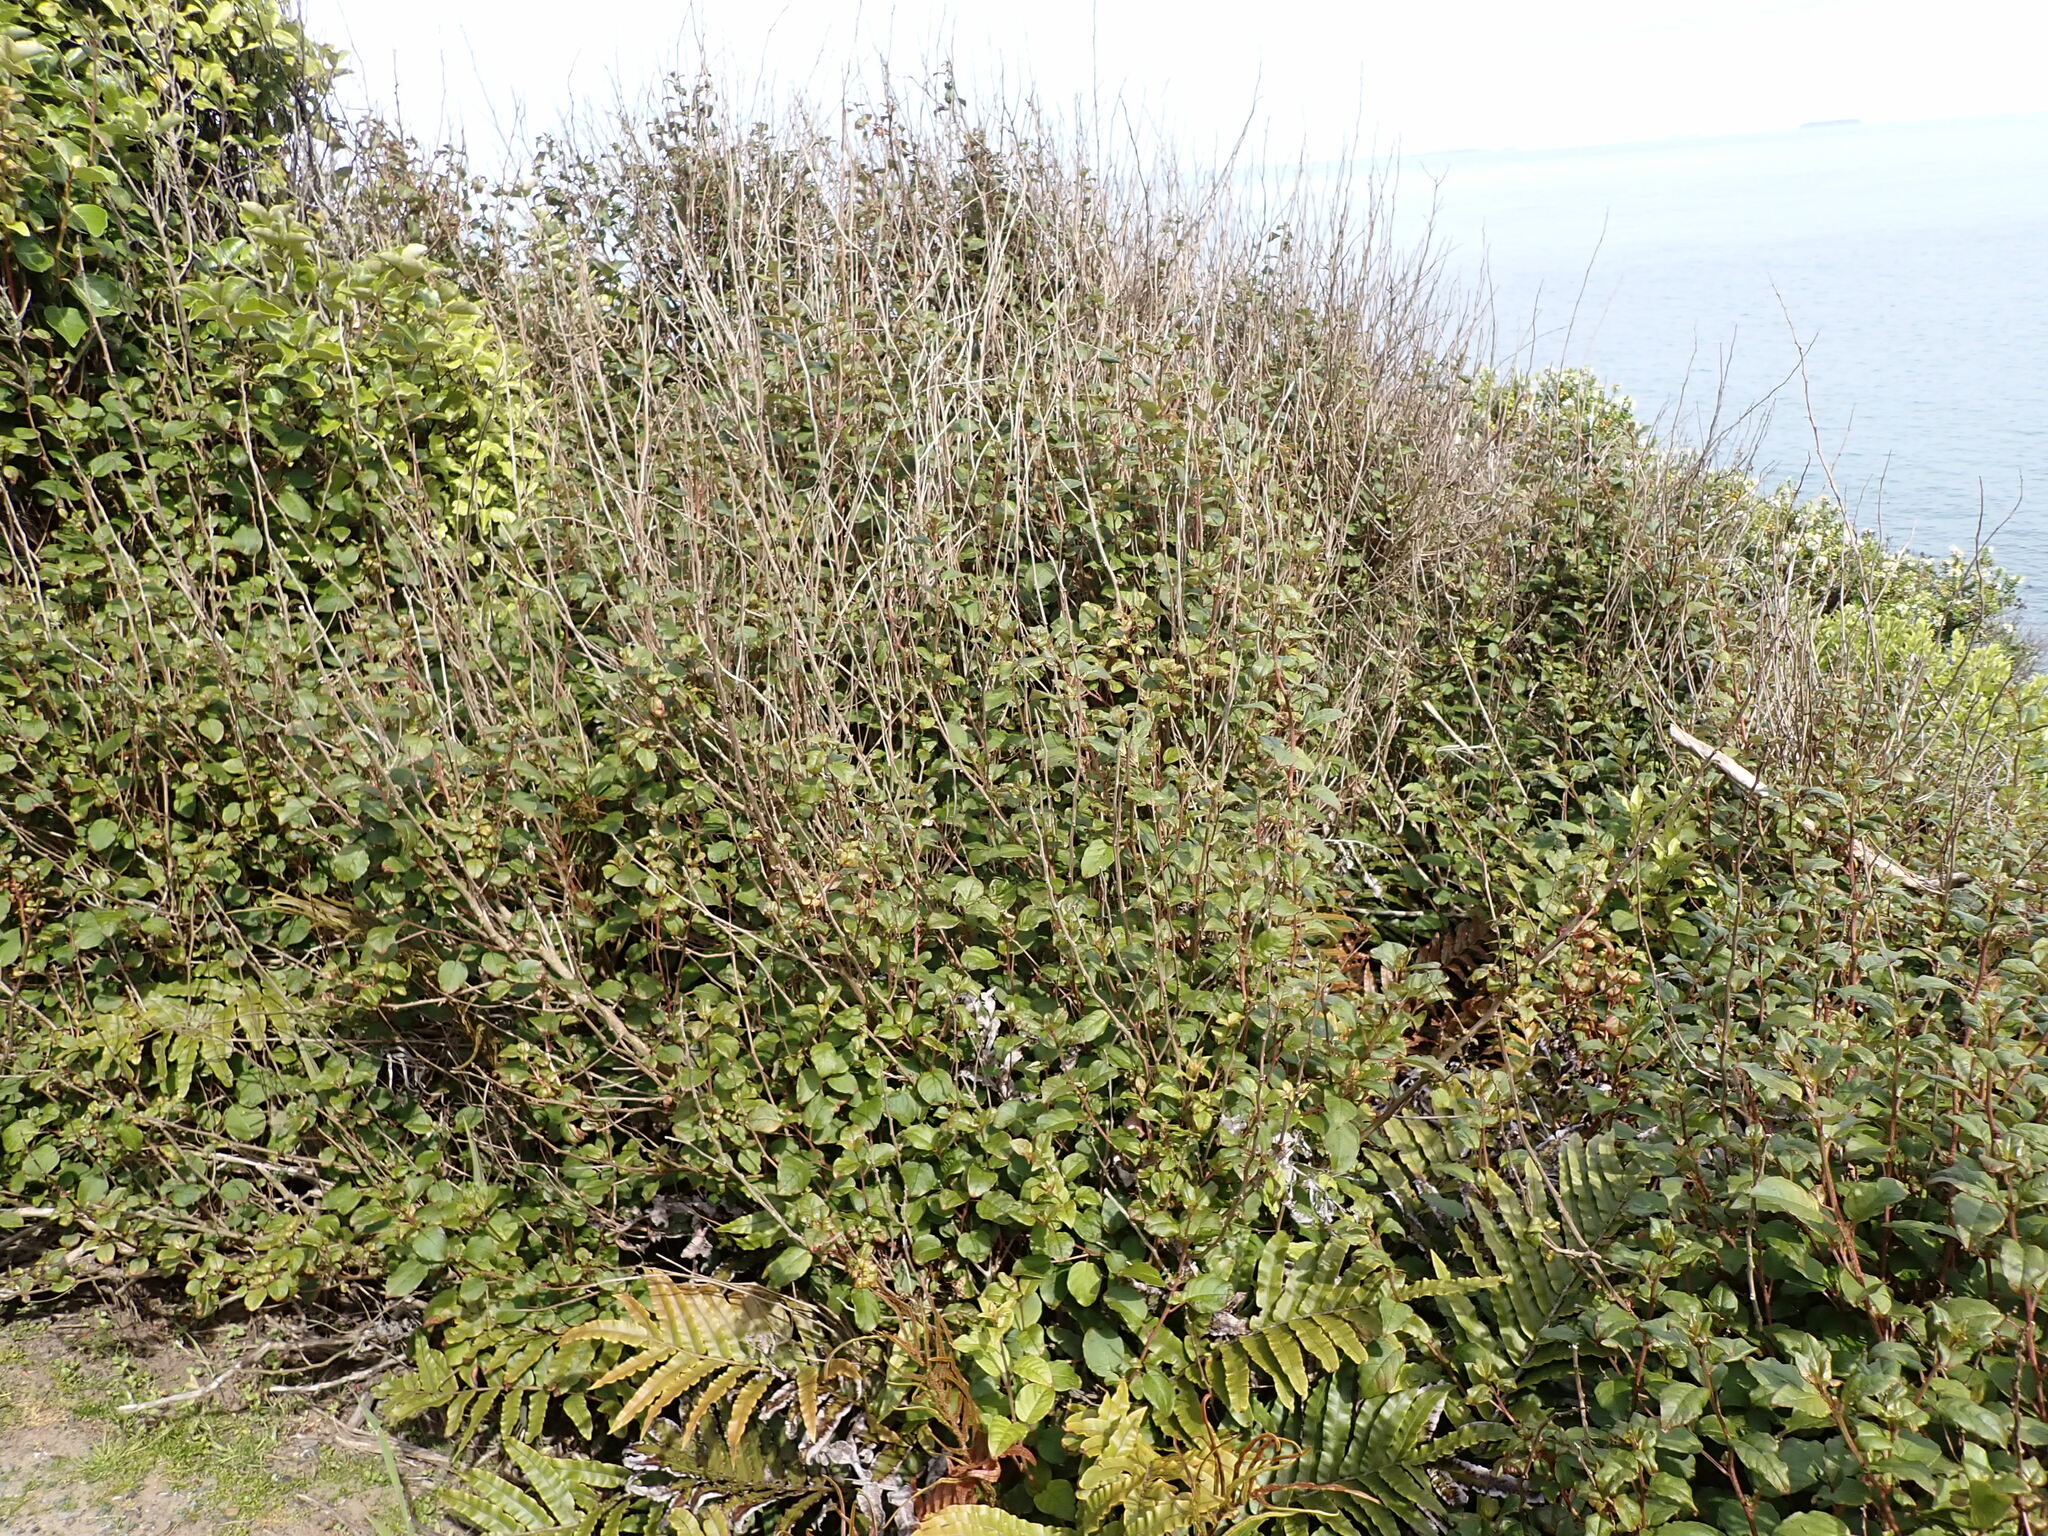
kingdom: Plantae
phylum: Tracheophyta
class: Magnoliopsida
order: Myrtales
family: Onagraceae
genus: Fuchsia
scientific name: Fuchsia colensoi
